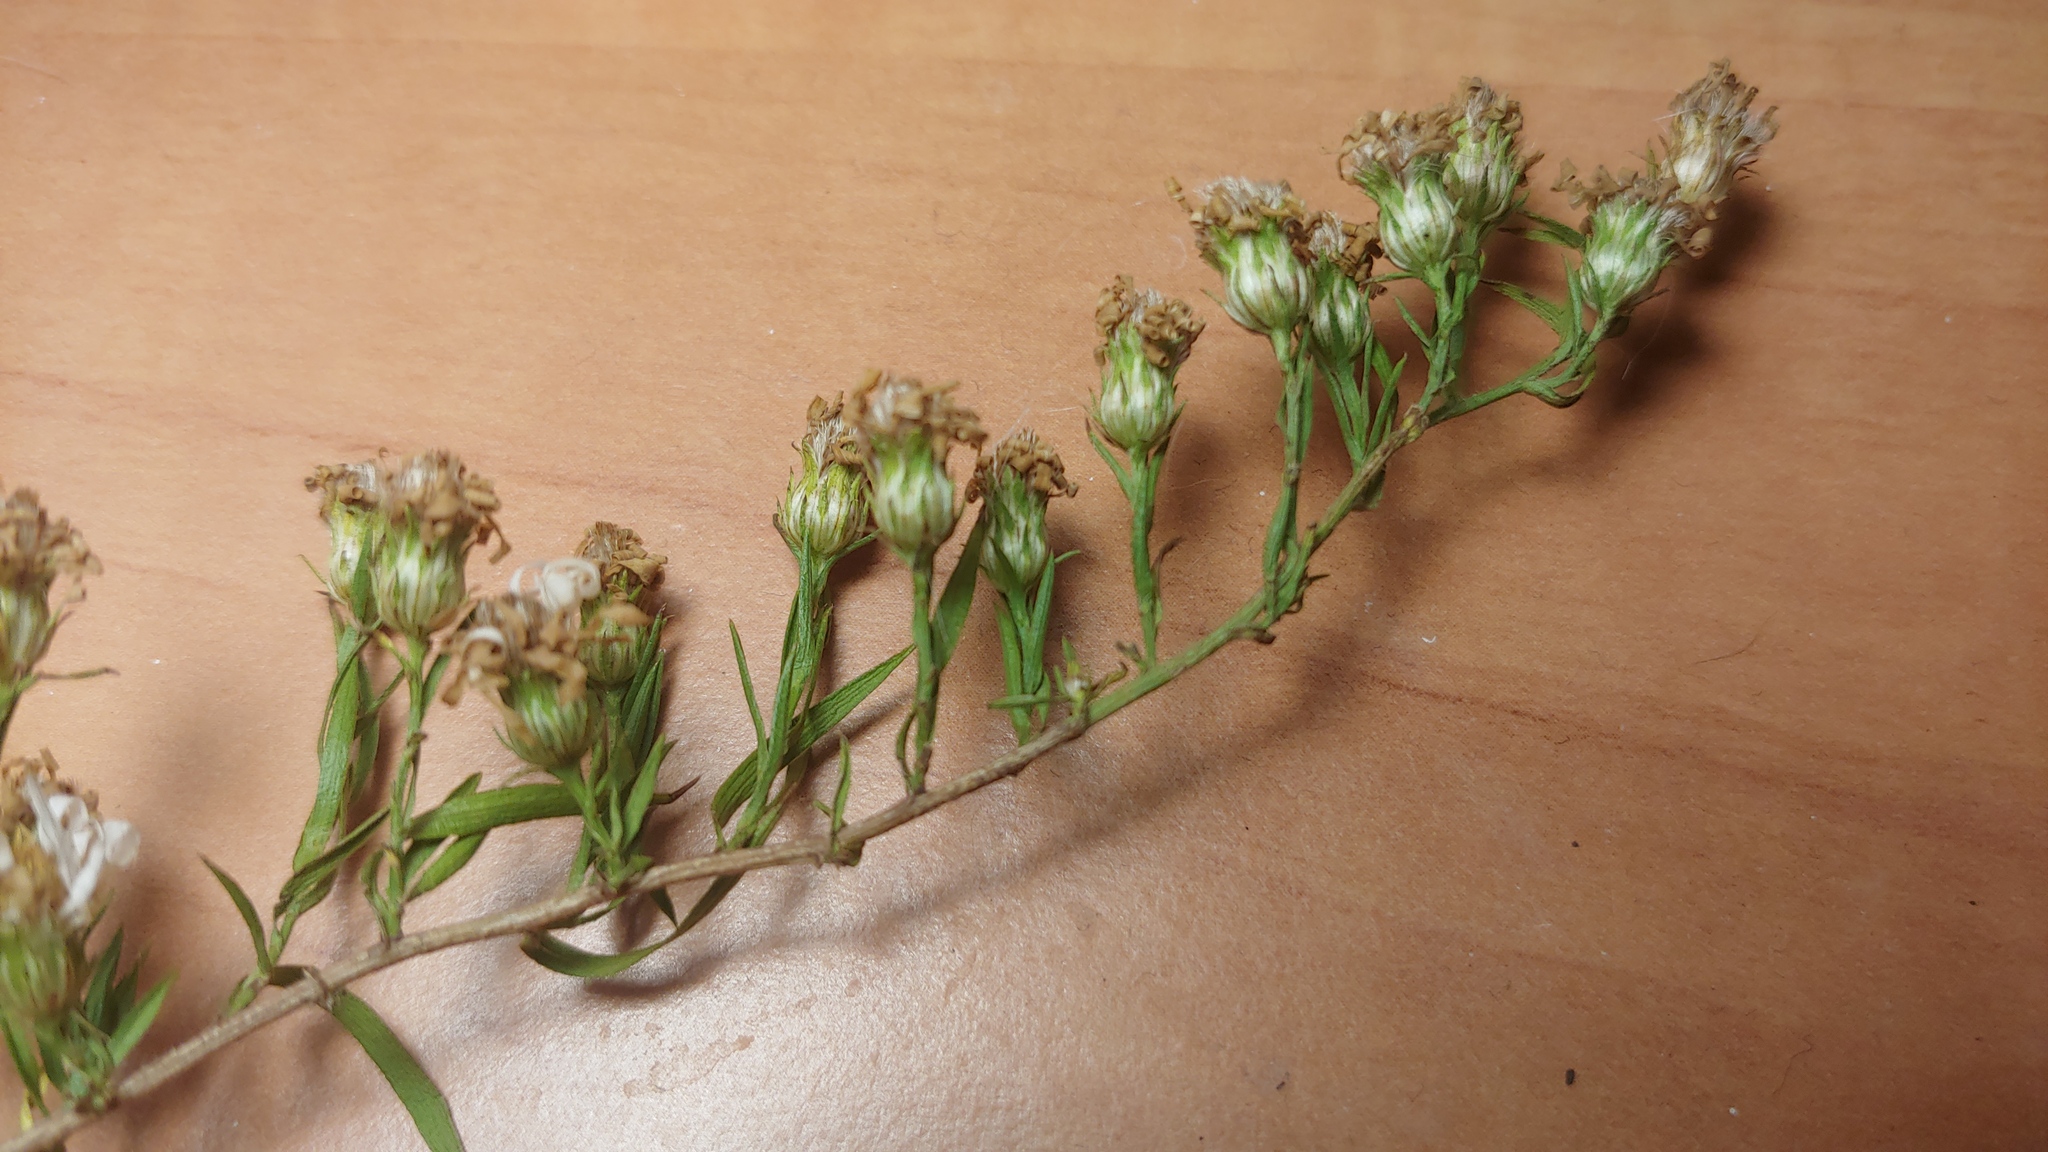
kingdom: Plantae
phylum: Tracheophyta
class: Magnoliopsida
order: Asterales
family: Asteraceae
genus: Symphyotrichum
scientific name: Symphyotrichum pilosum
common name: Awl aster
